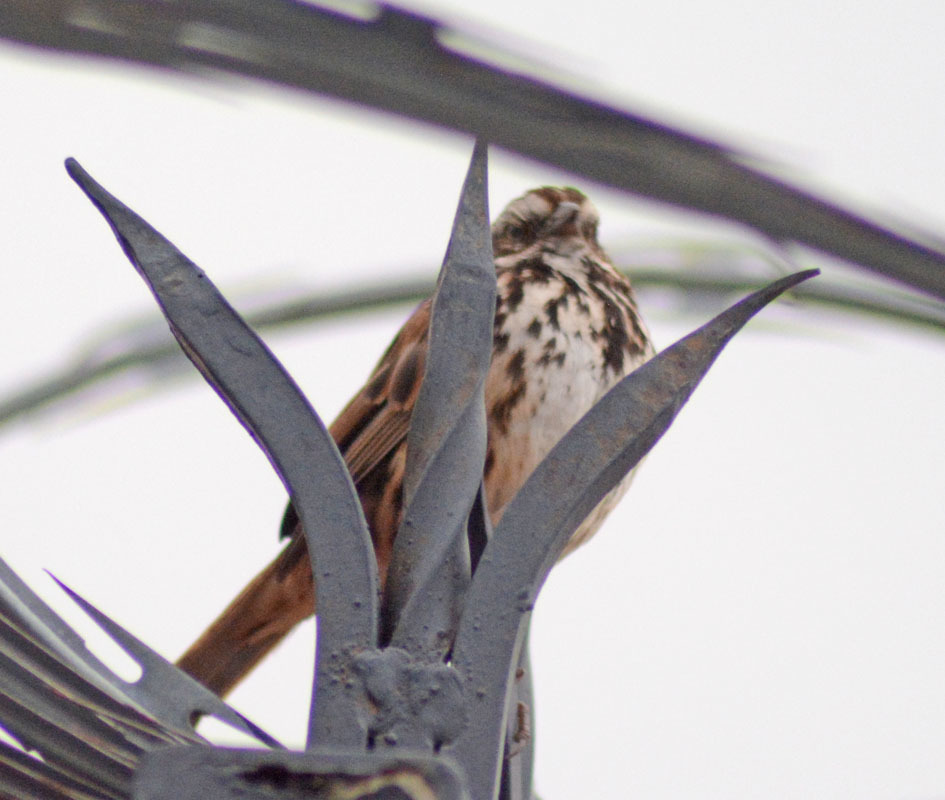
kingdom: Animalia
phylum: Chordata
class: Aves
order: Passeriformes
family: Passerellidae
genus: Melospiza
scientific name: Melospiza melodia
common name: Song sparrow
